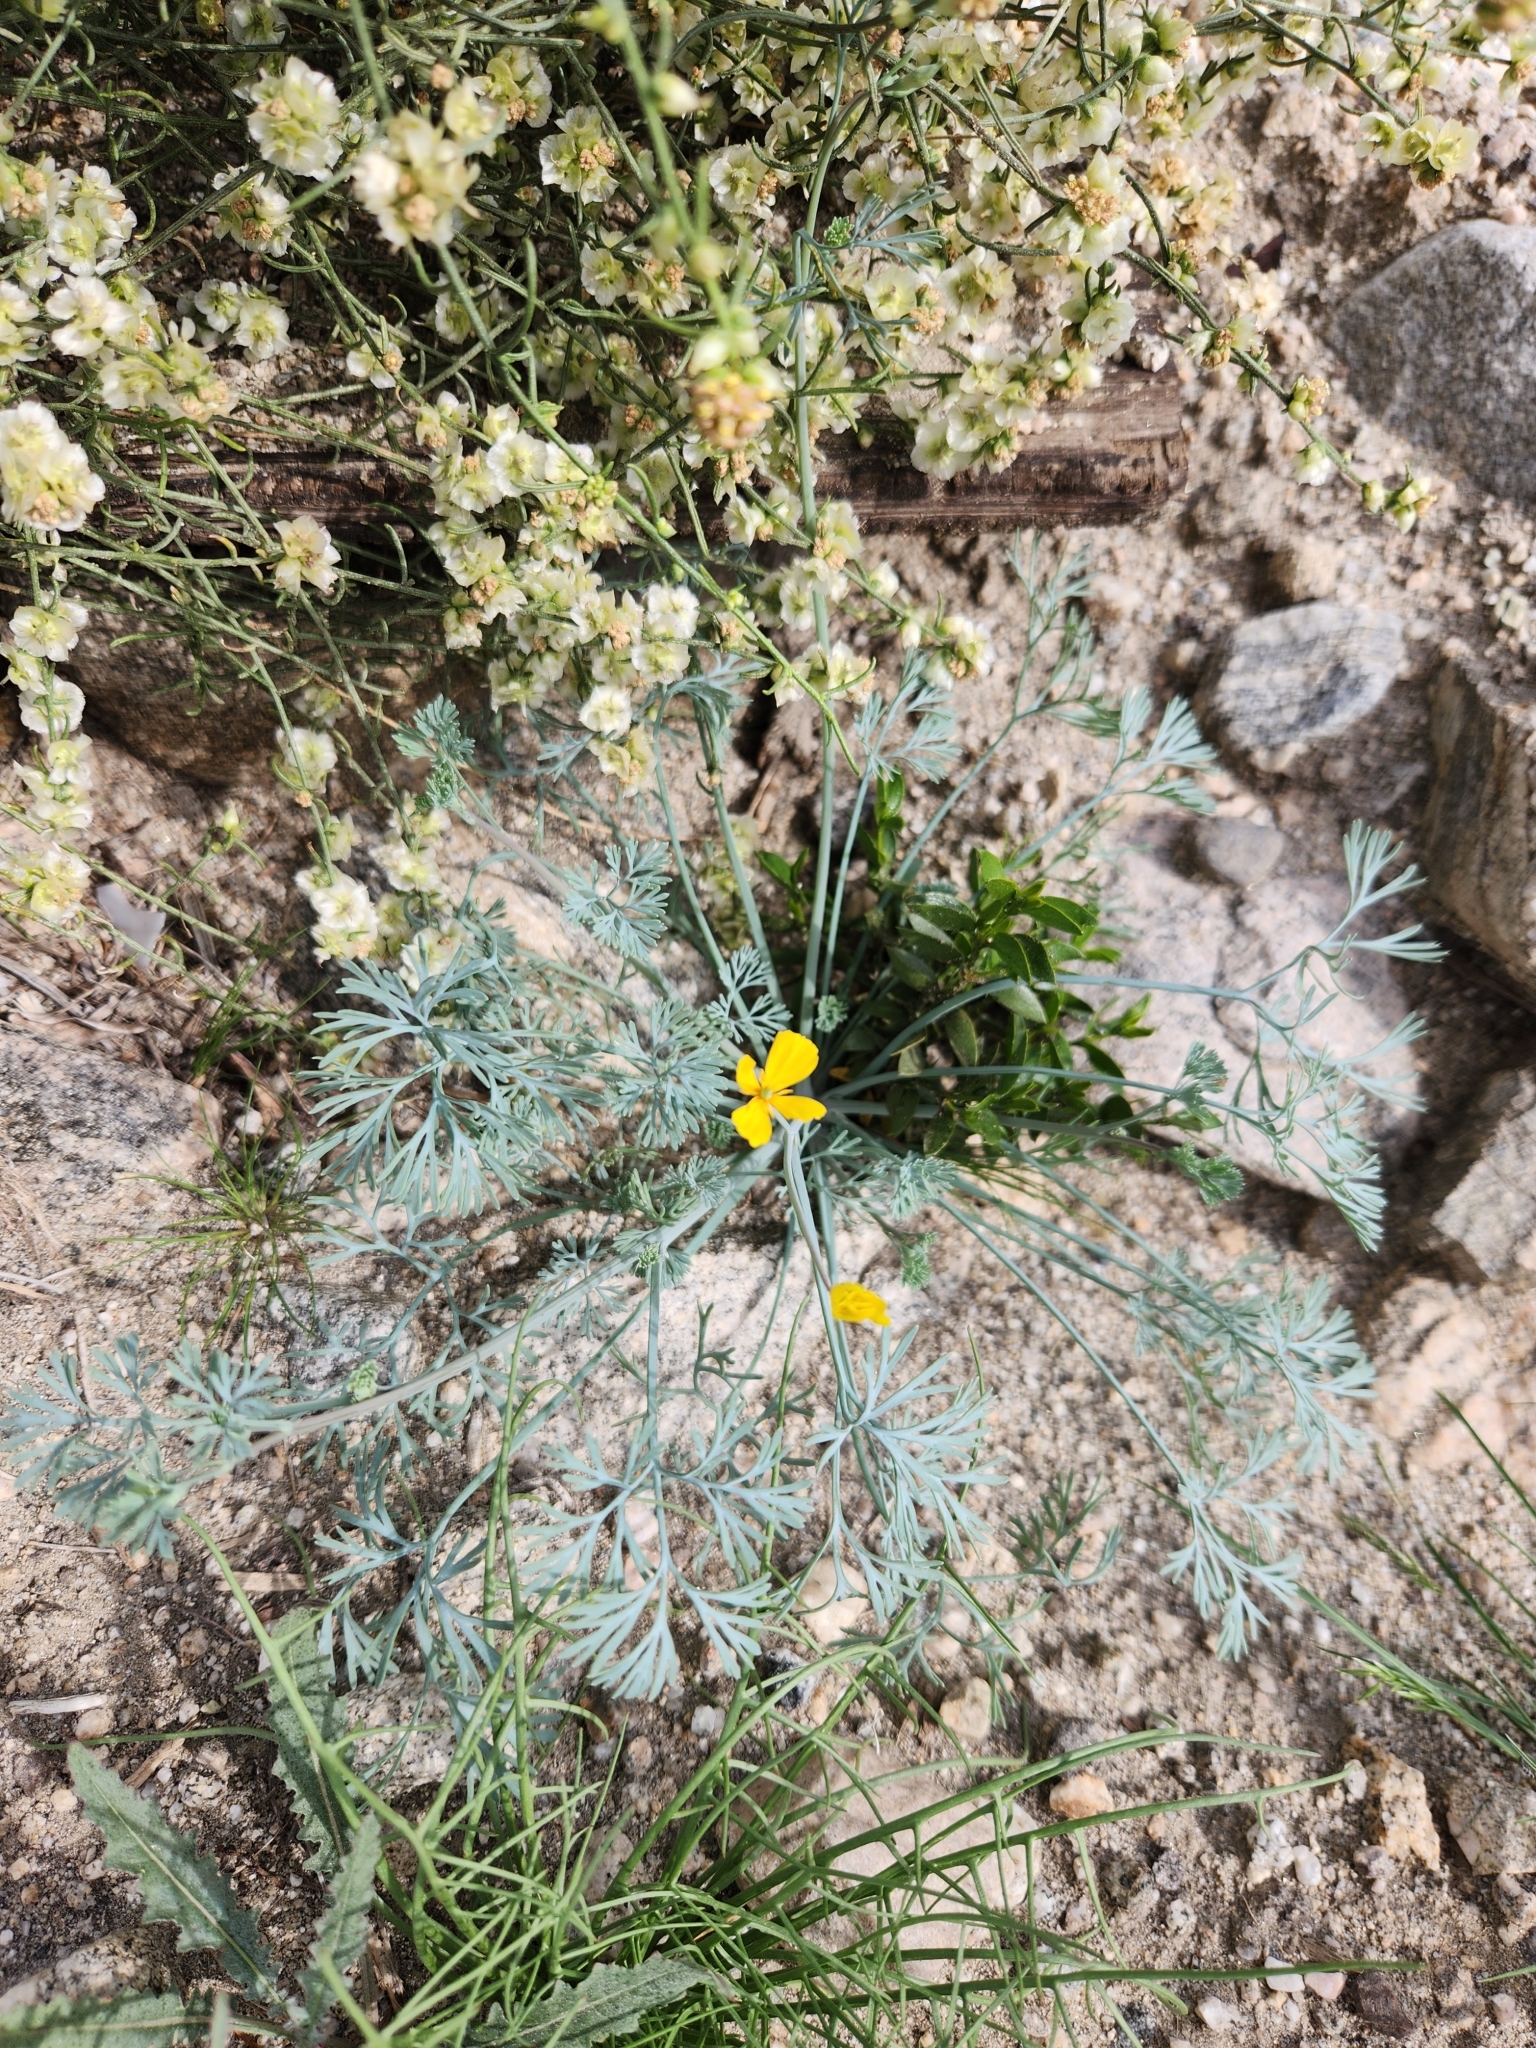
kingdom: Plantae
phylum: Tracheophyta
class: Magnoliopsida
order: Ranunculales
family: Papaveraceae
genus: Eschscholzia
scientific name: Eschscholzia minutiflora
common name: Small-flower california-poppy
